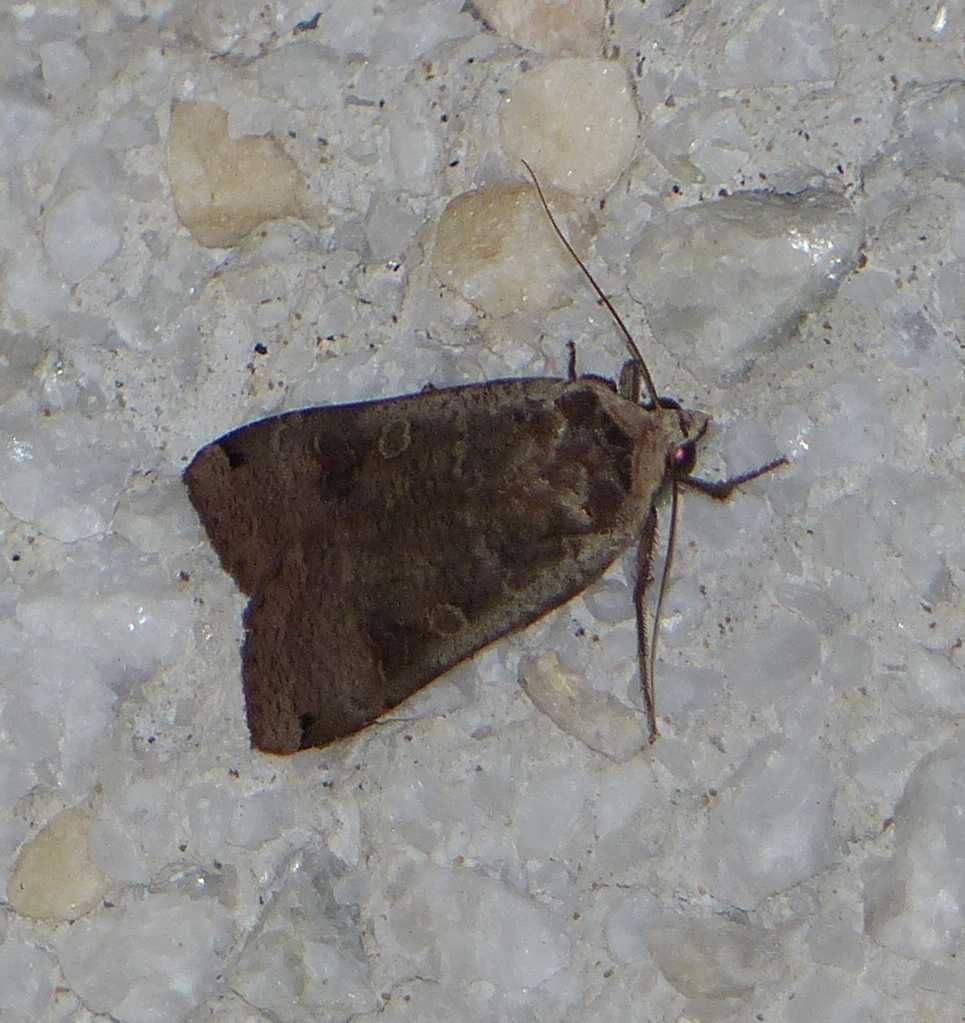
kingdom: Animalia
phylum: Arthropoda
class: Insecta
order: Lepidoptera
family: Noctuidae
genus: Noctua
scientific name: Noctua pronuba
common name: Large yellow underwing
